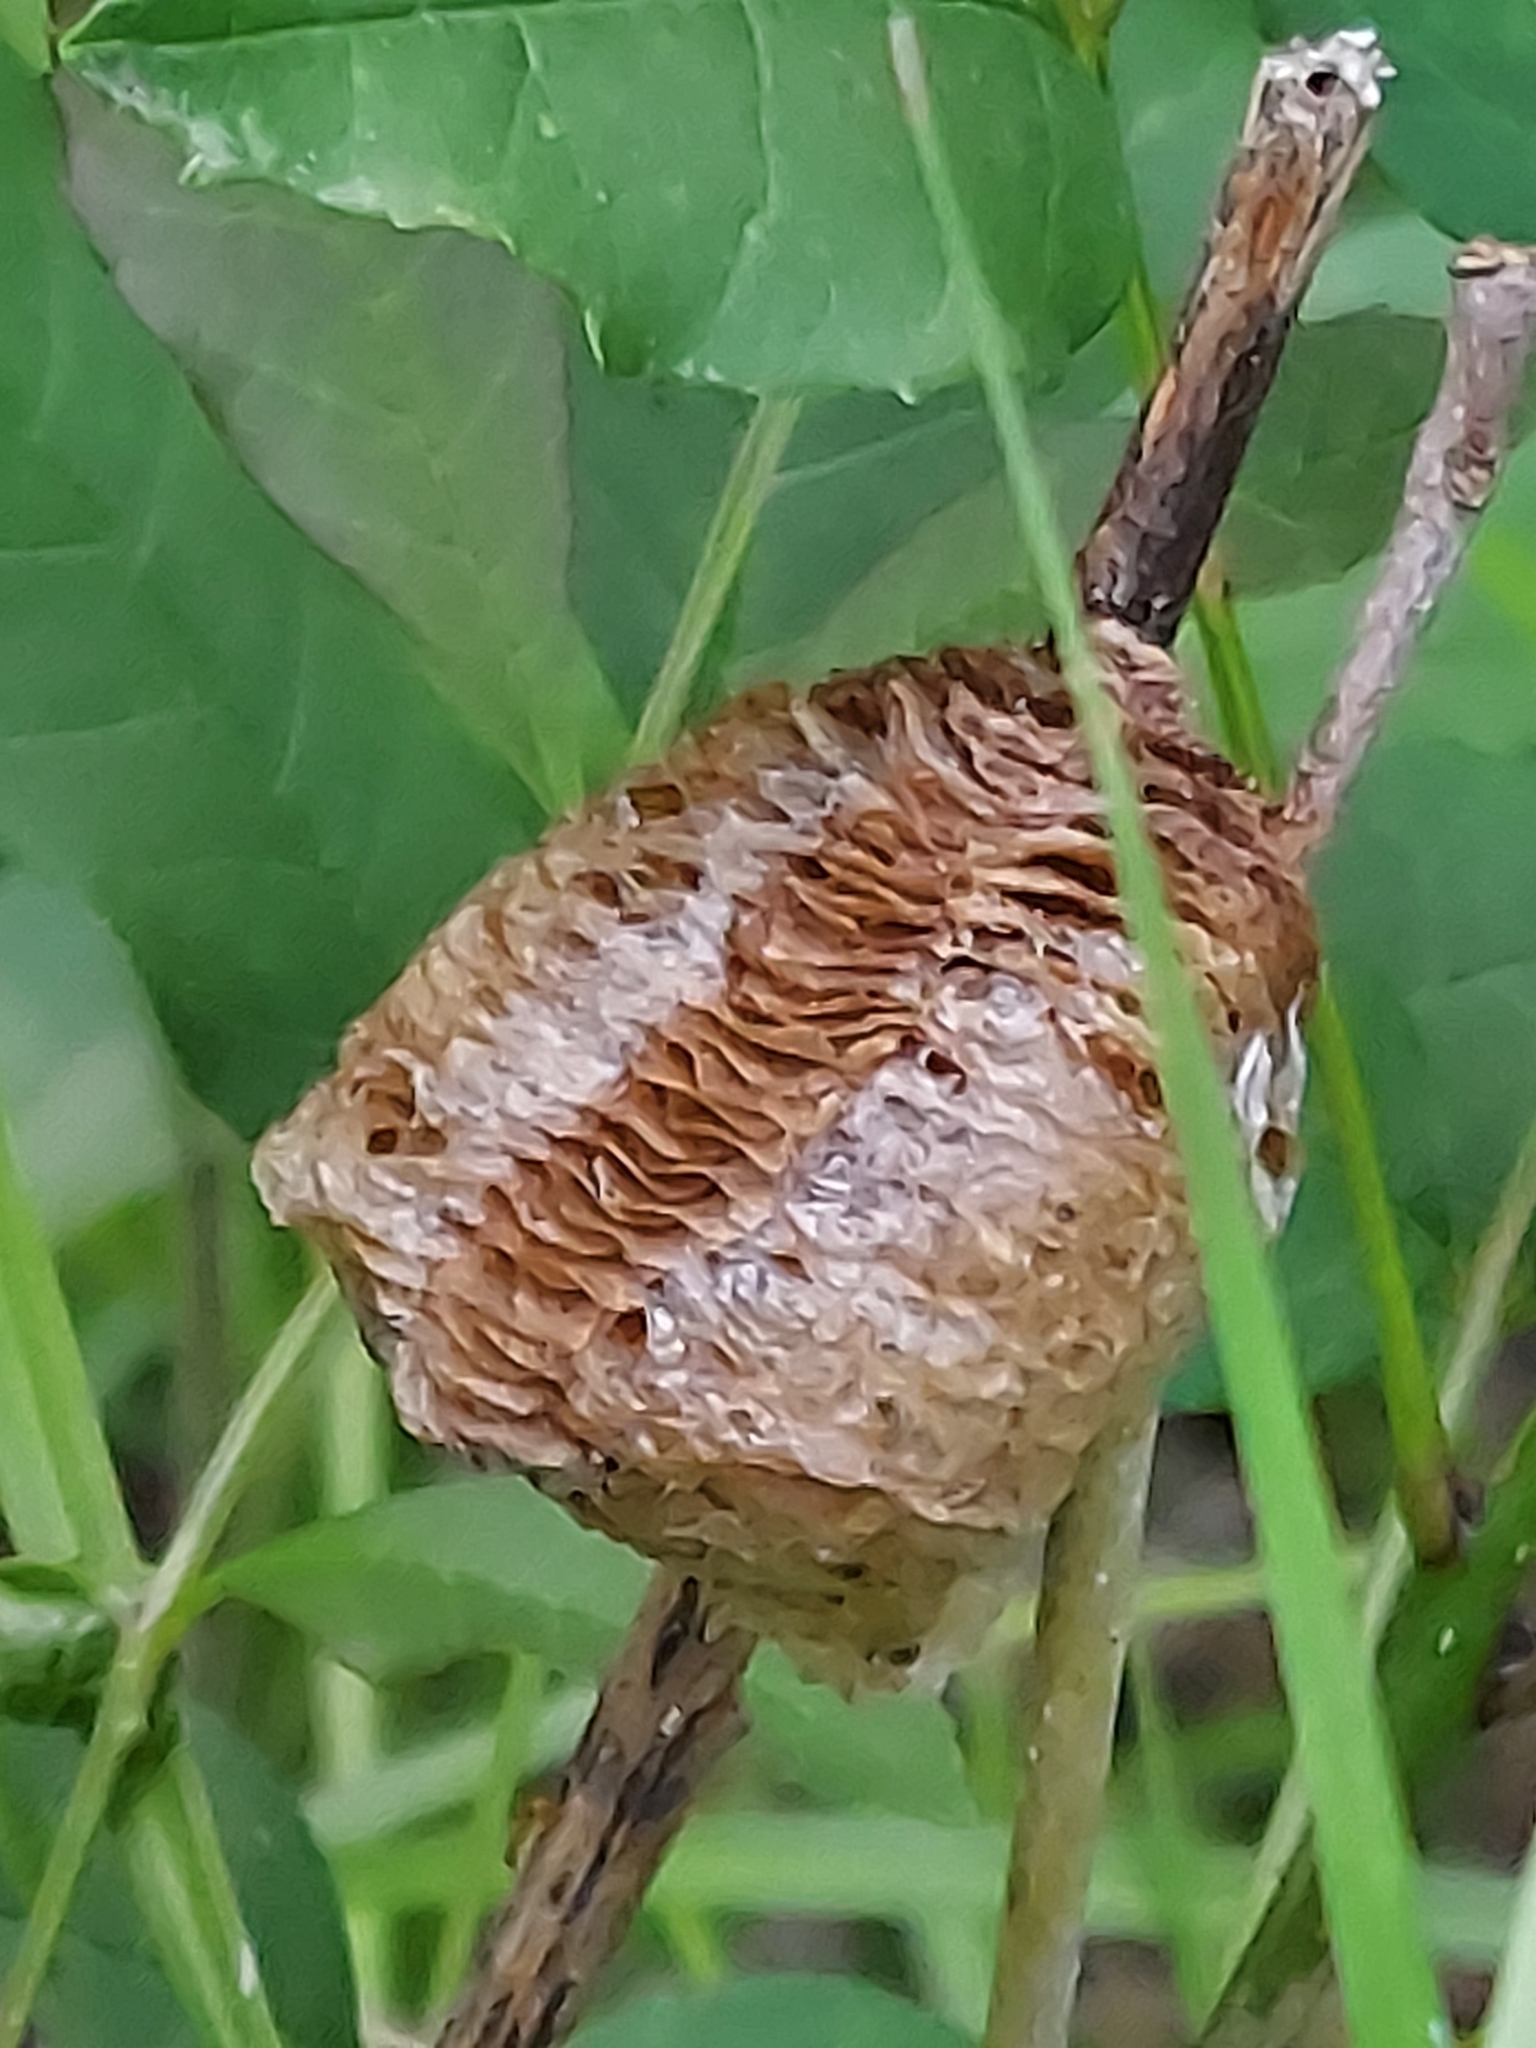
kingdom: Animalia
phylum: Arthropoda
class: Insecta
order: Mantodea
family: Mantidae
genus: Tenodera
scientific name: Tenodera sinensis
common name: Chinese mantis
